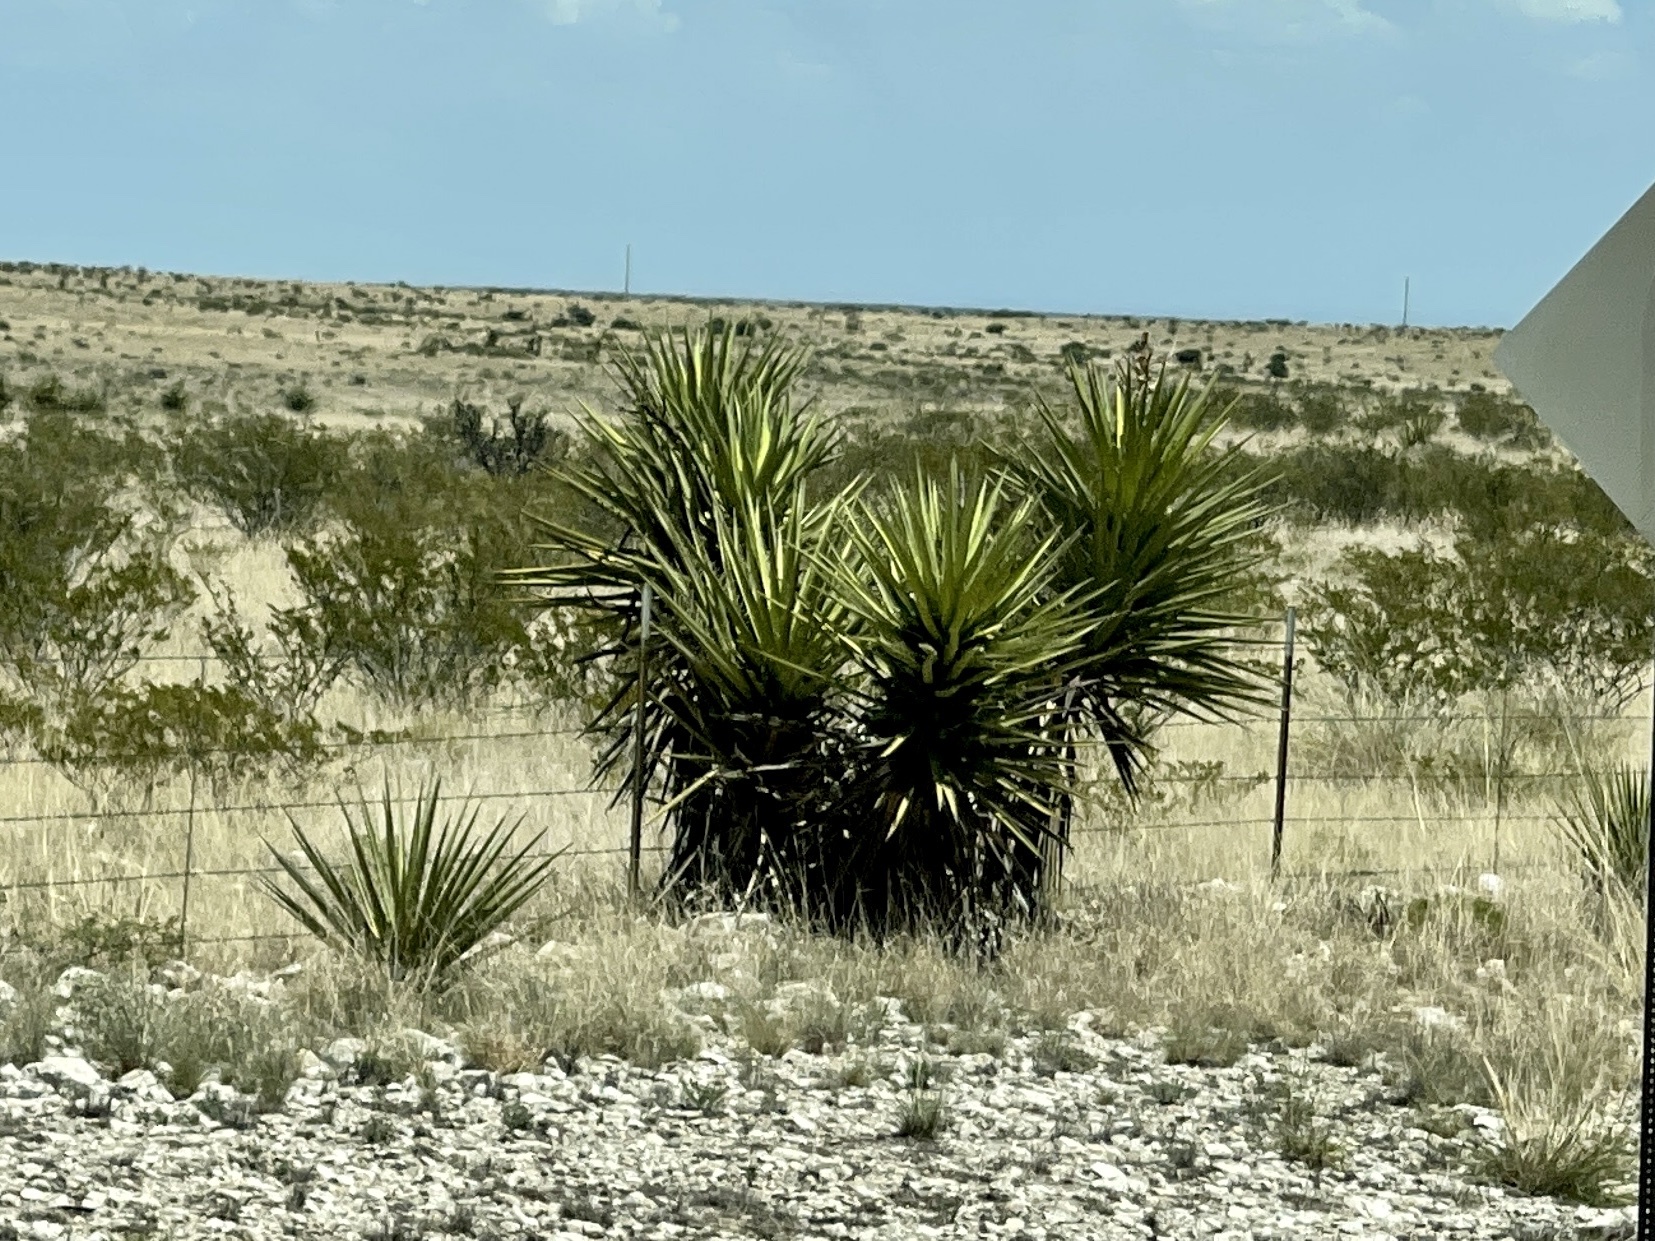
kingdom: Plantae
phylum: Tracheophyta
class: Liliopsida
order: Asparagales
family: Asparagaceae
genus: Yucca
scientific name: Yucca treculiana
